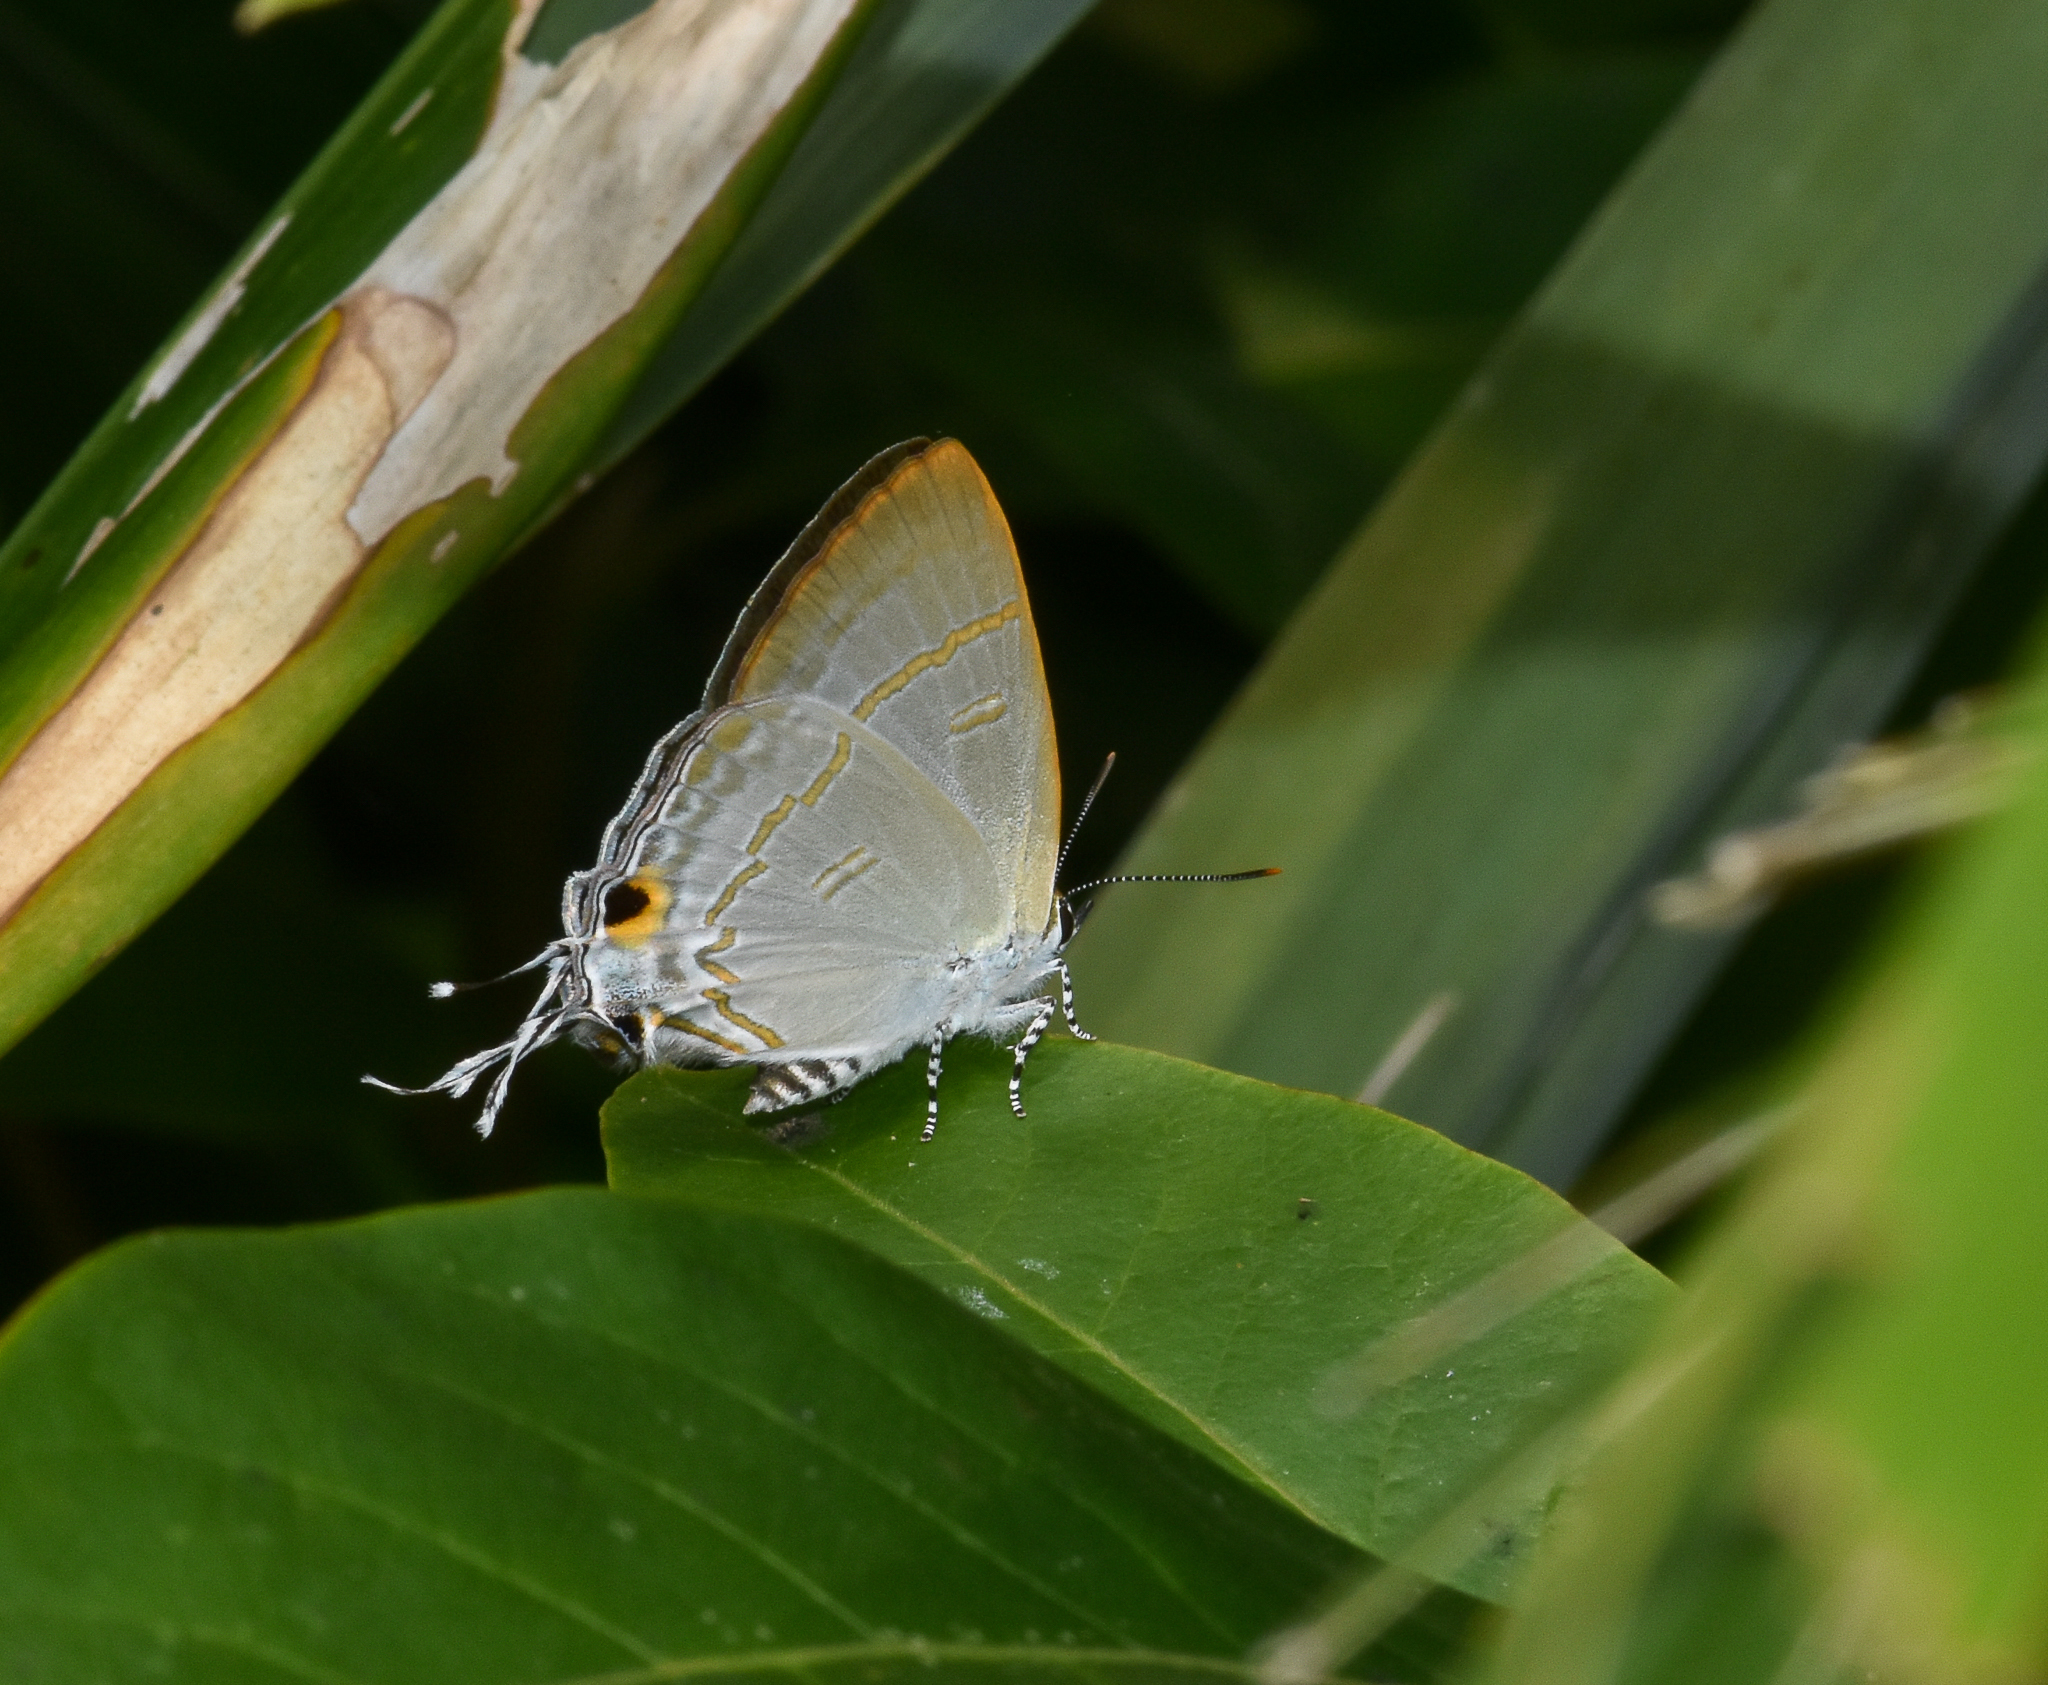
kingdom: Animalia
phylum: Arthropoda
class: Insecta
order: Lepidoptera
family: Lycaenidae
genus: Hypolycaena
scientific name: Hypolycaena erylus
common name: Common tit
